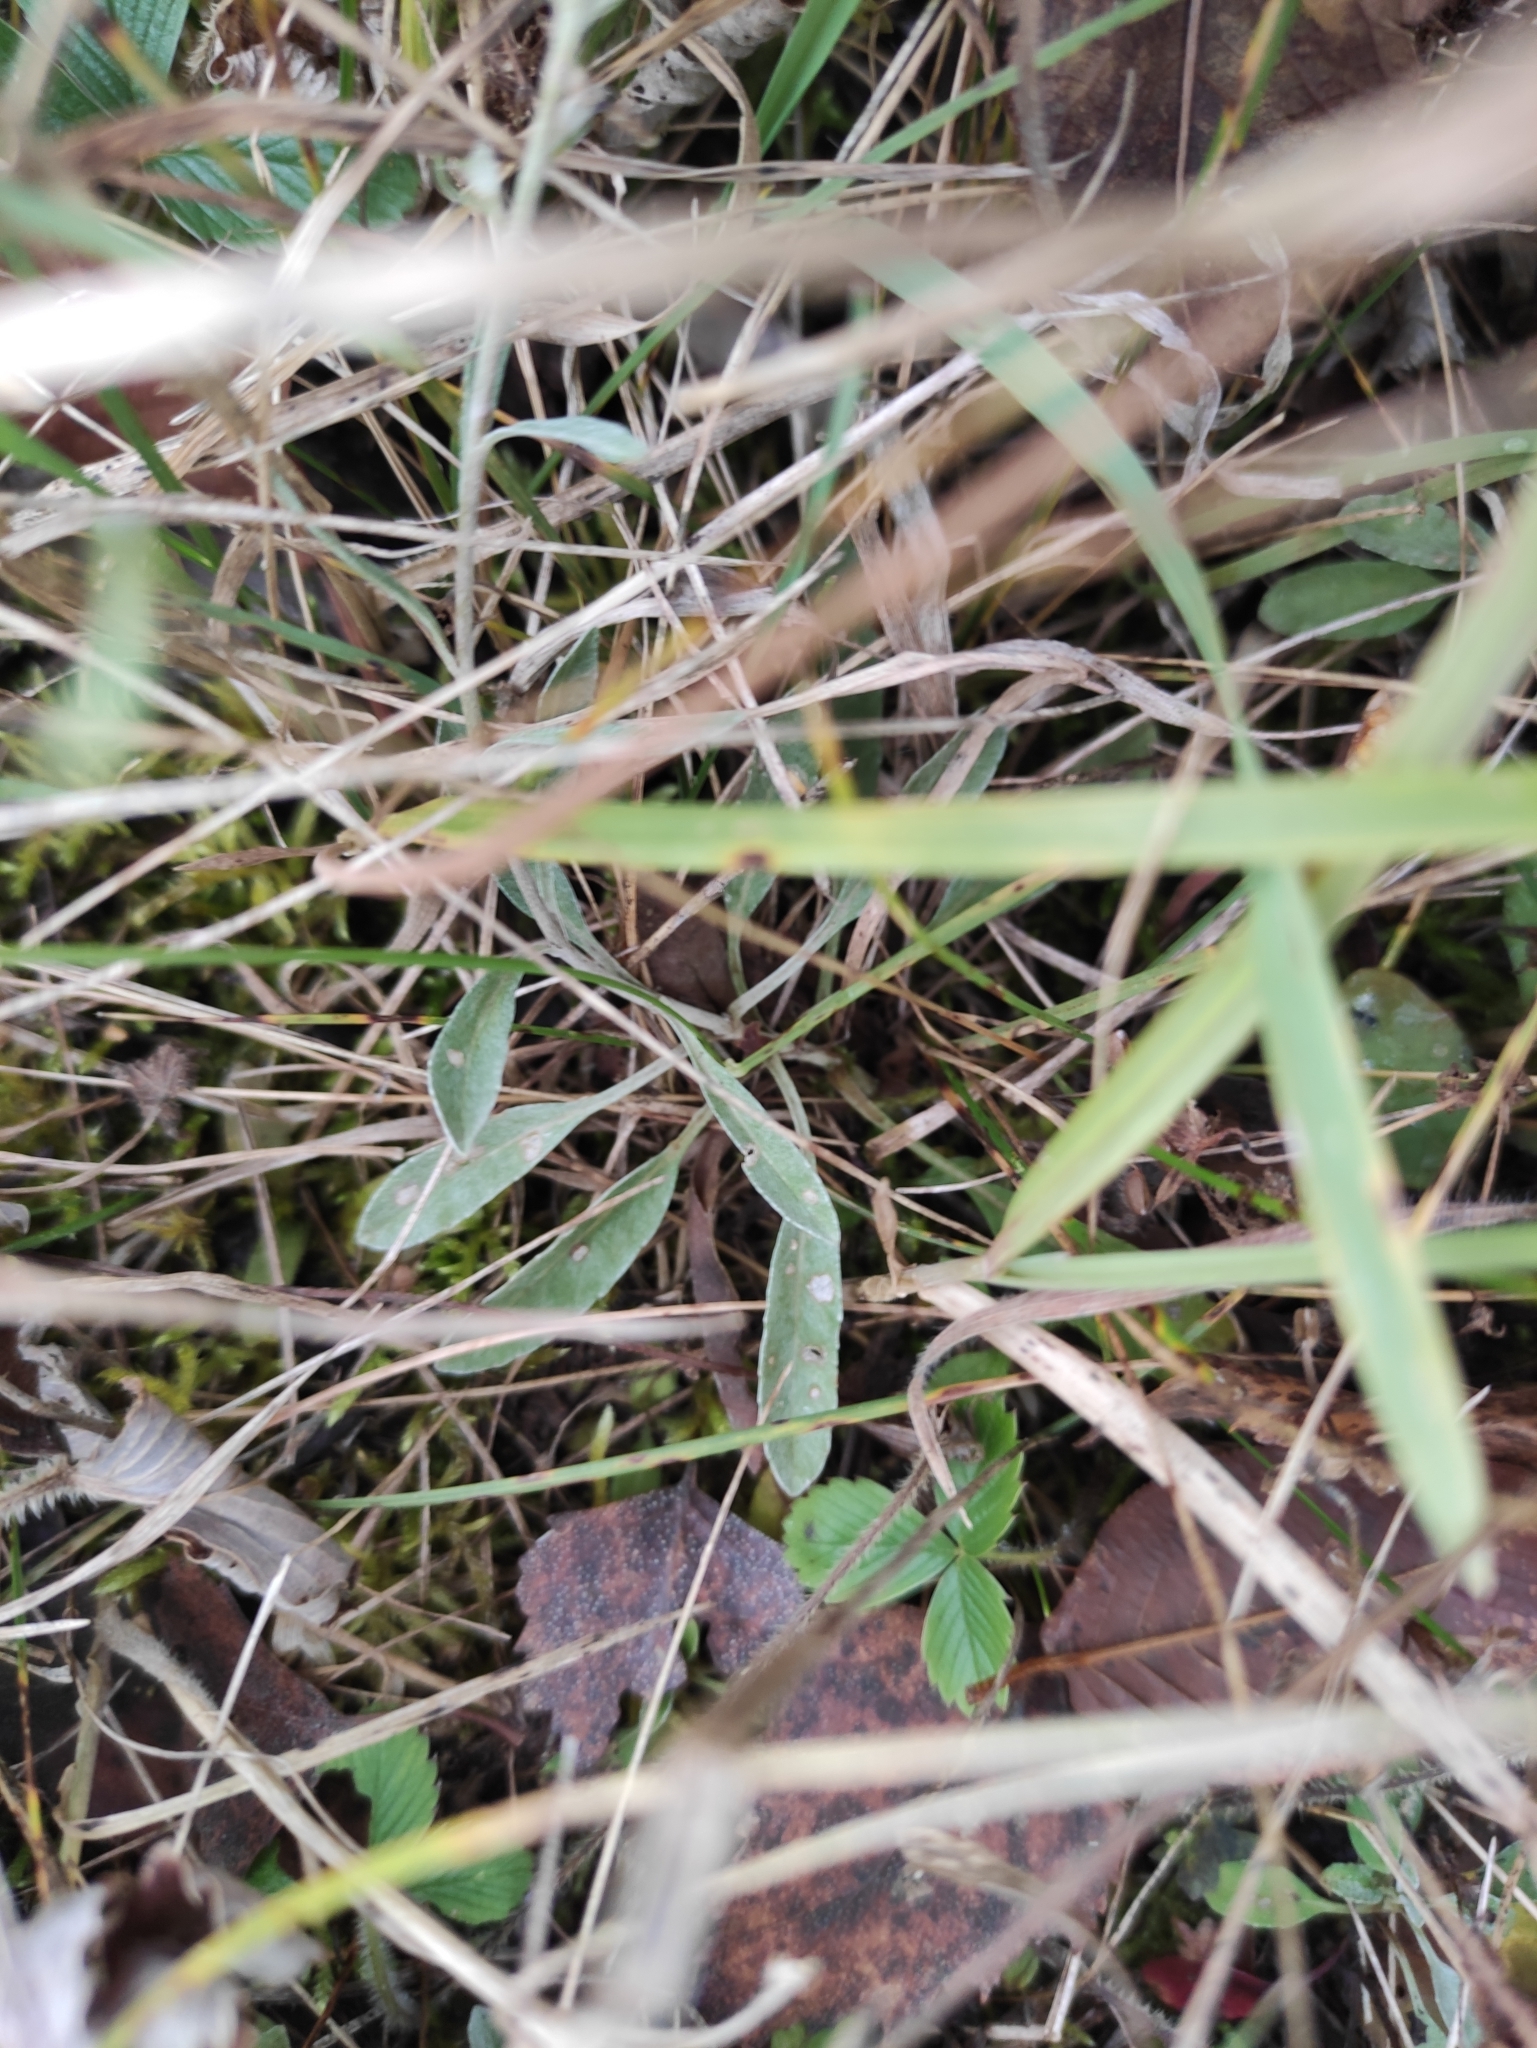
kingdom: Plantae
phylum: Tracheophyta
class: Magnoliopsida
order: Lamiales
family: Plantaginaceae
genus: Veronica
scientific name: Veronica incana
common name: Silver speedwell
